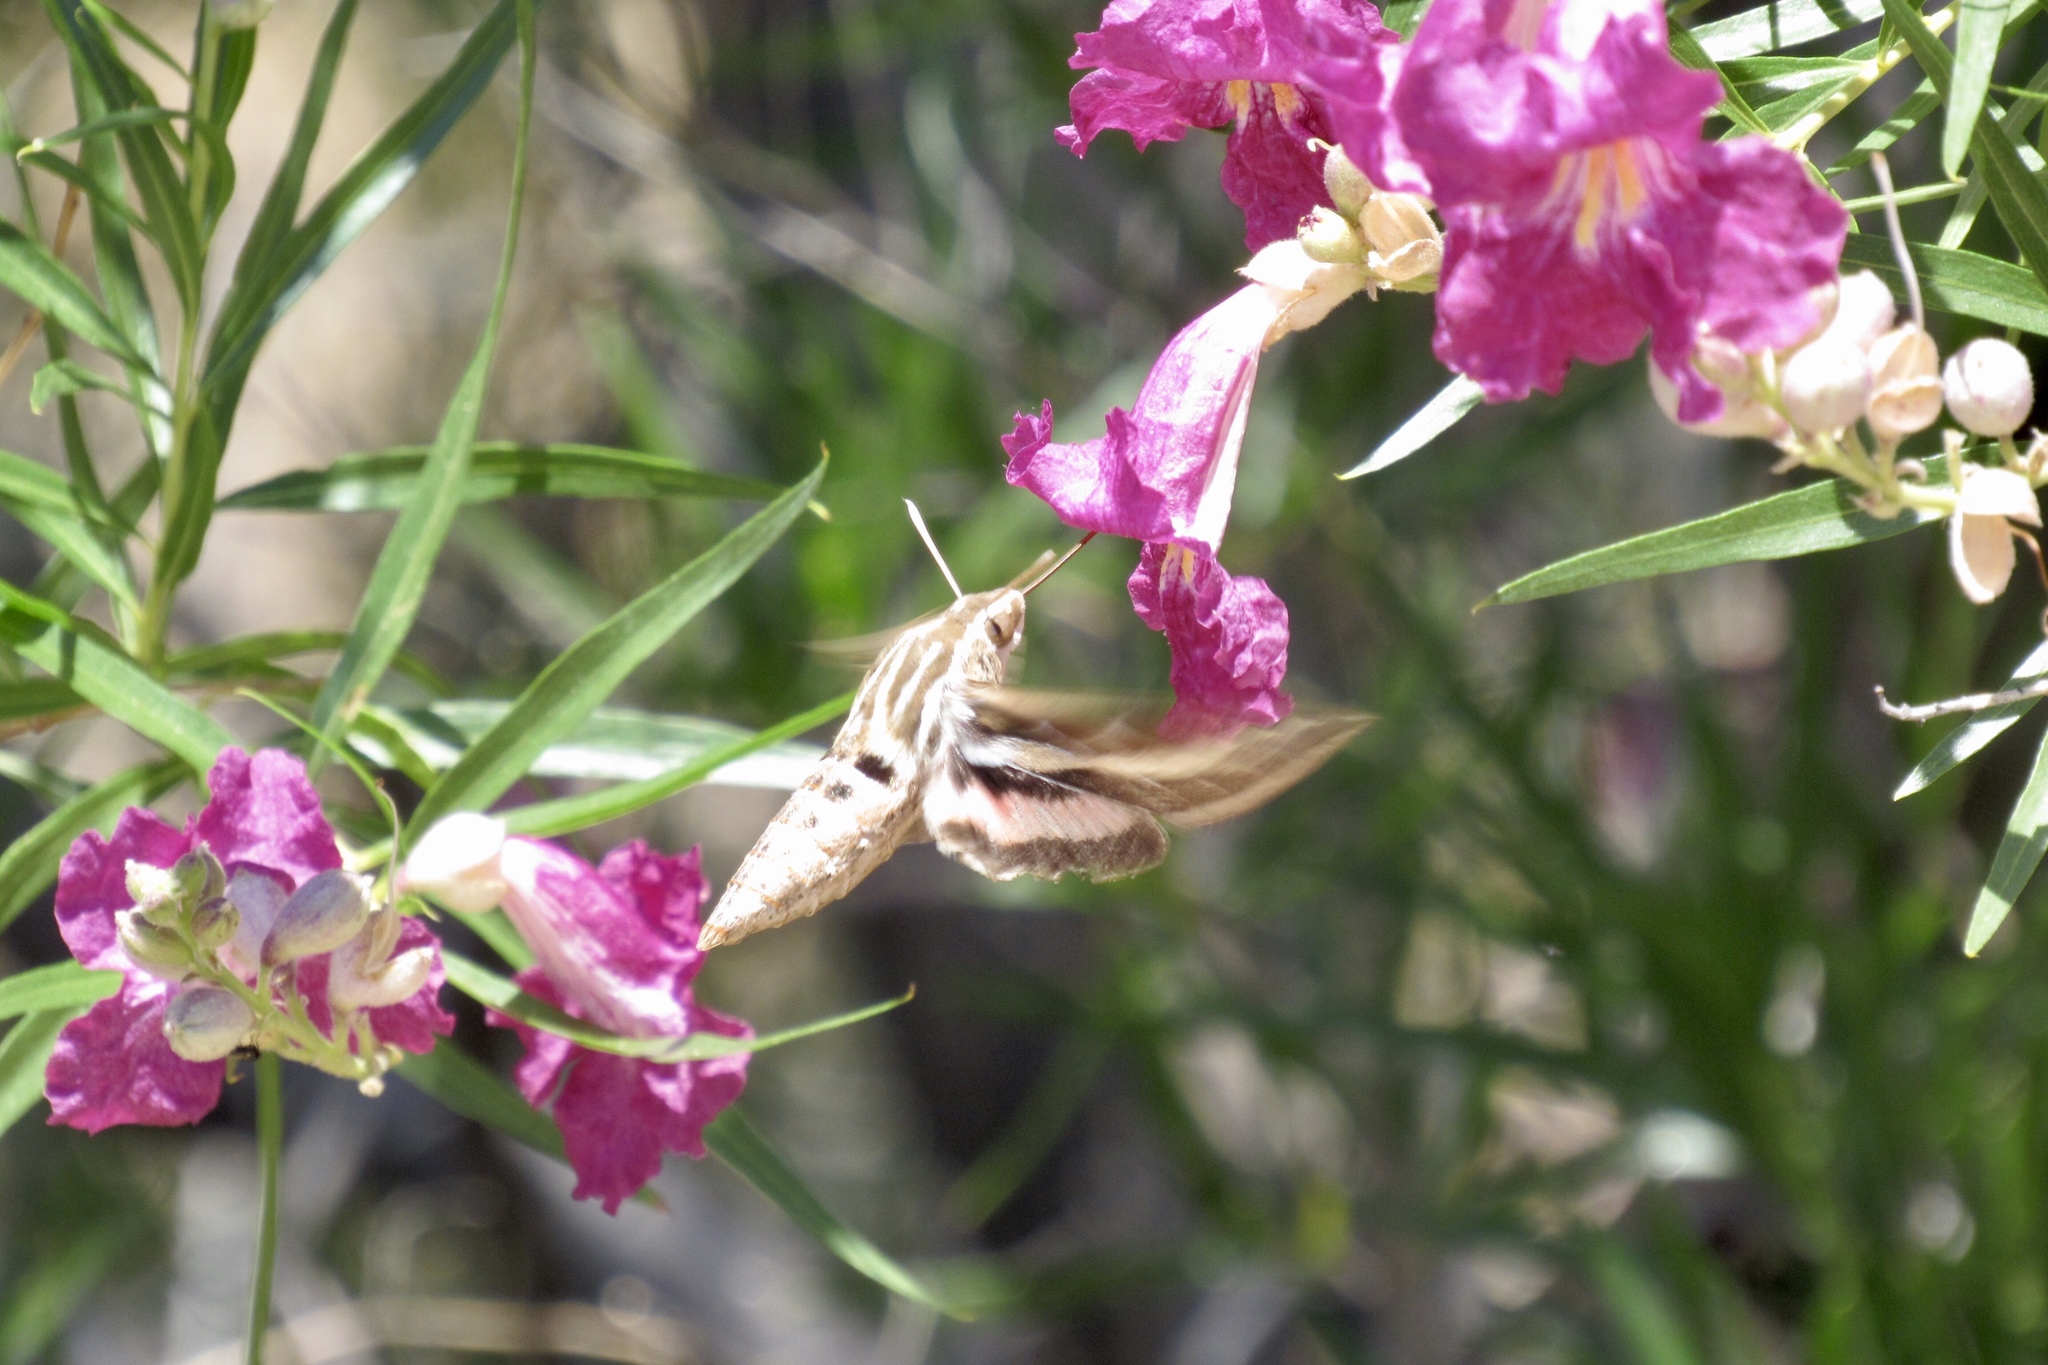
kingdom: Animalia
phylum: Arthropoda
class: Insecta
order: Lepidoptera
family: Sphingidae
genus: Hyles
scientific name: Hyles lineata
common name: White-lined sphinx
